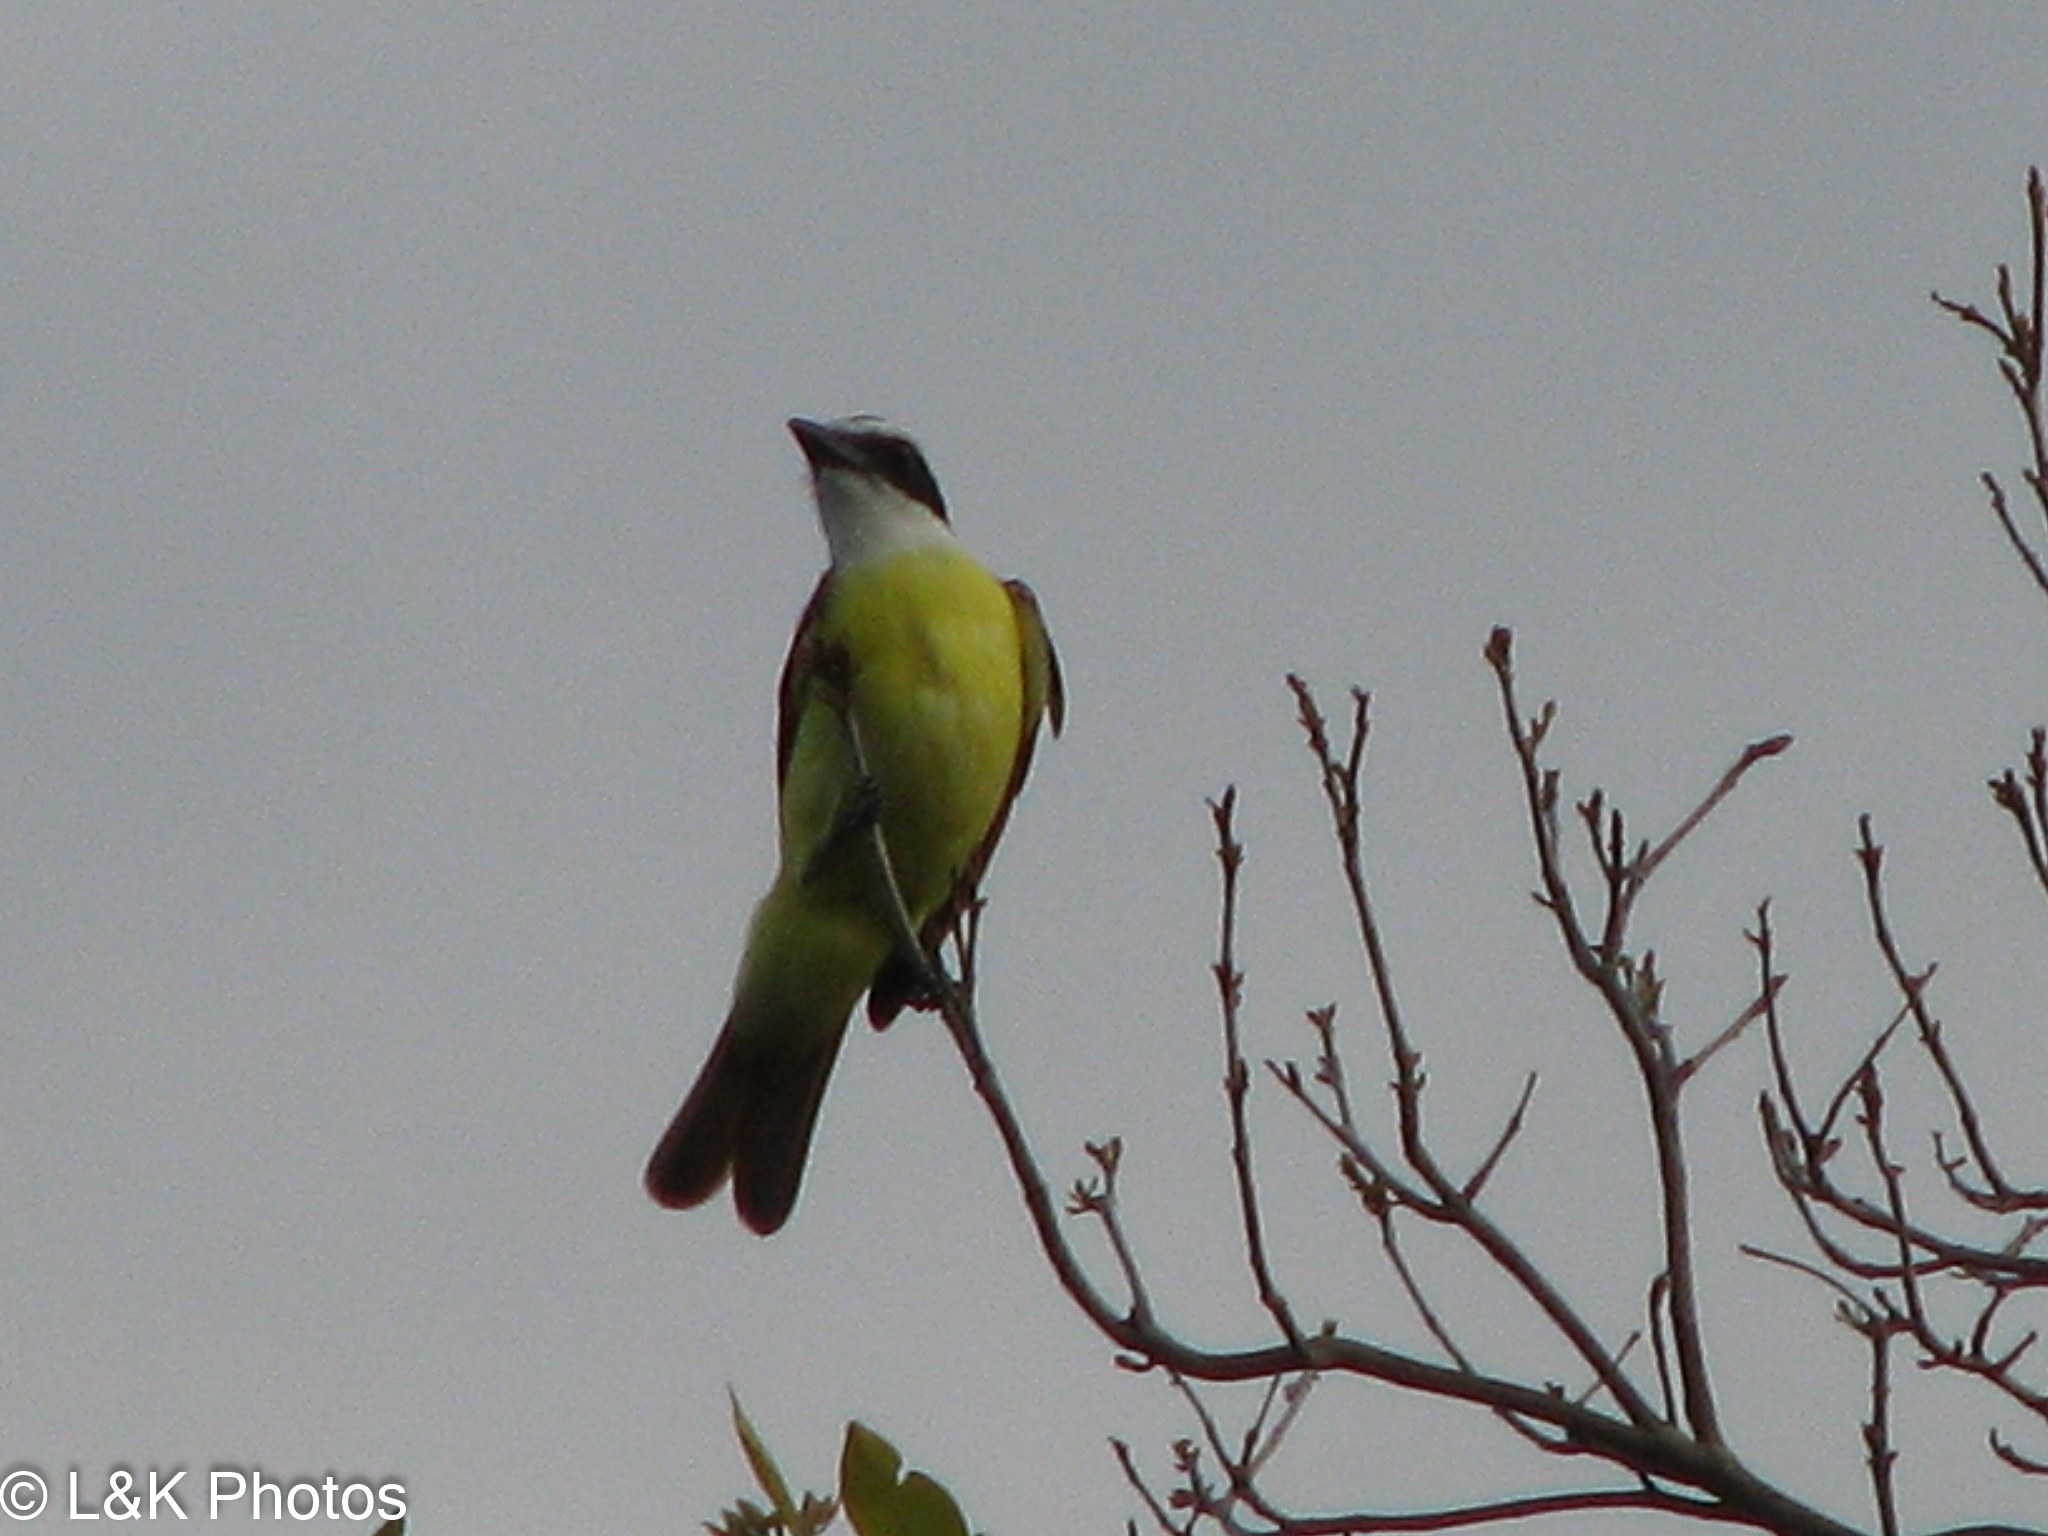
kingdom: Animalia
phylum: Chordata
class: Aves
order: Passeriformes
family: Tyrannidae
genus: Pitangus
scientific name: Pitangus sulphuratus
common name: Great kiskadee
